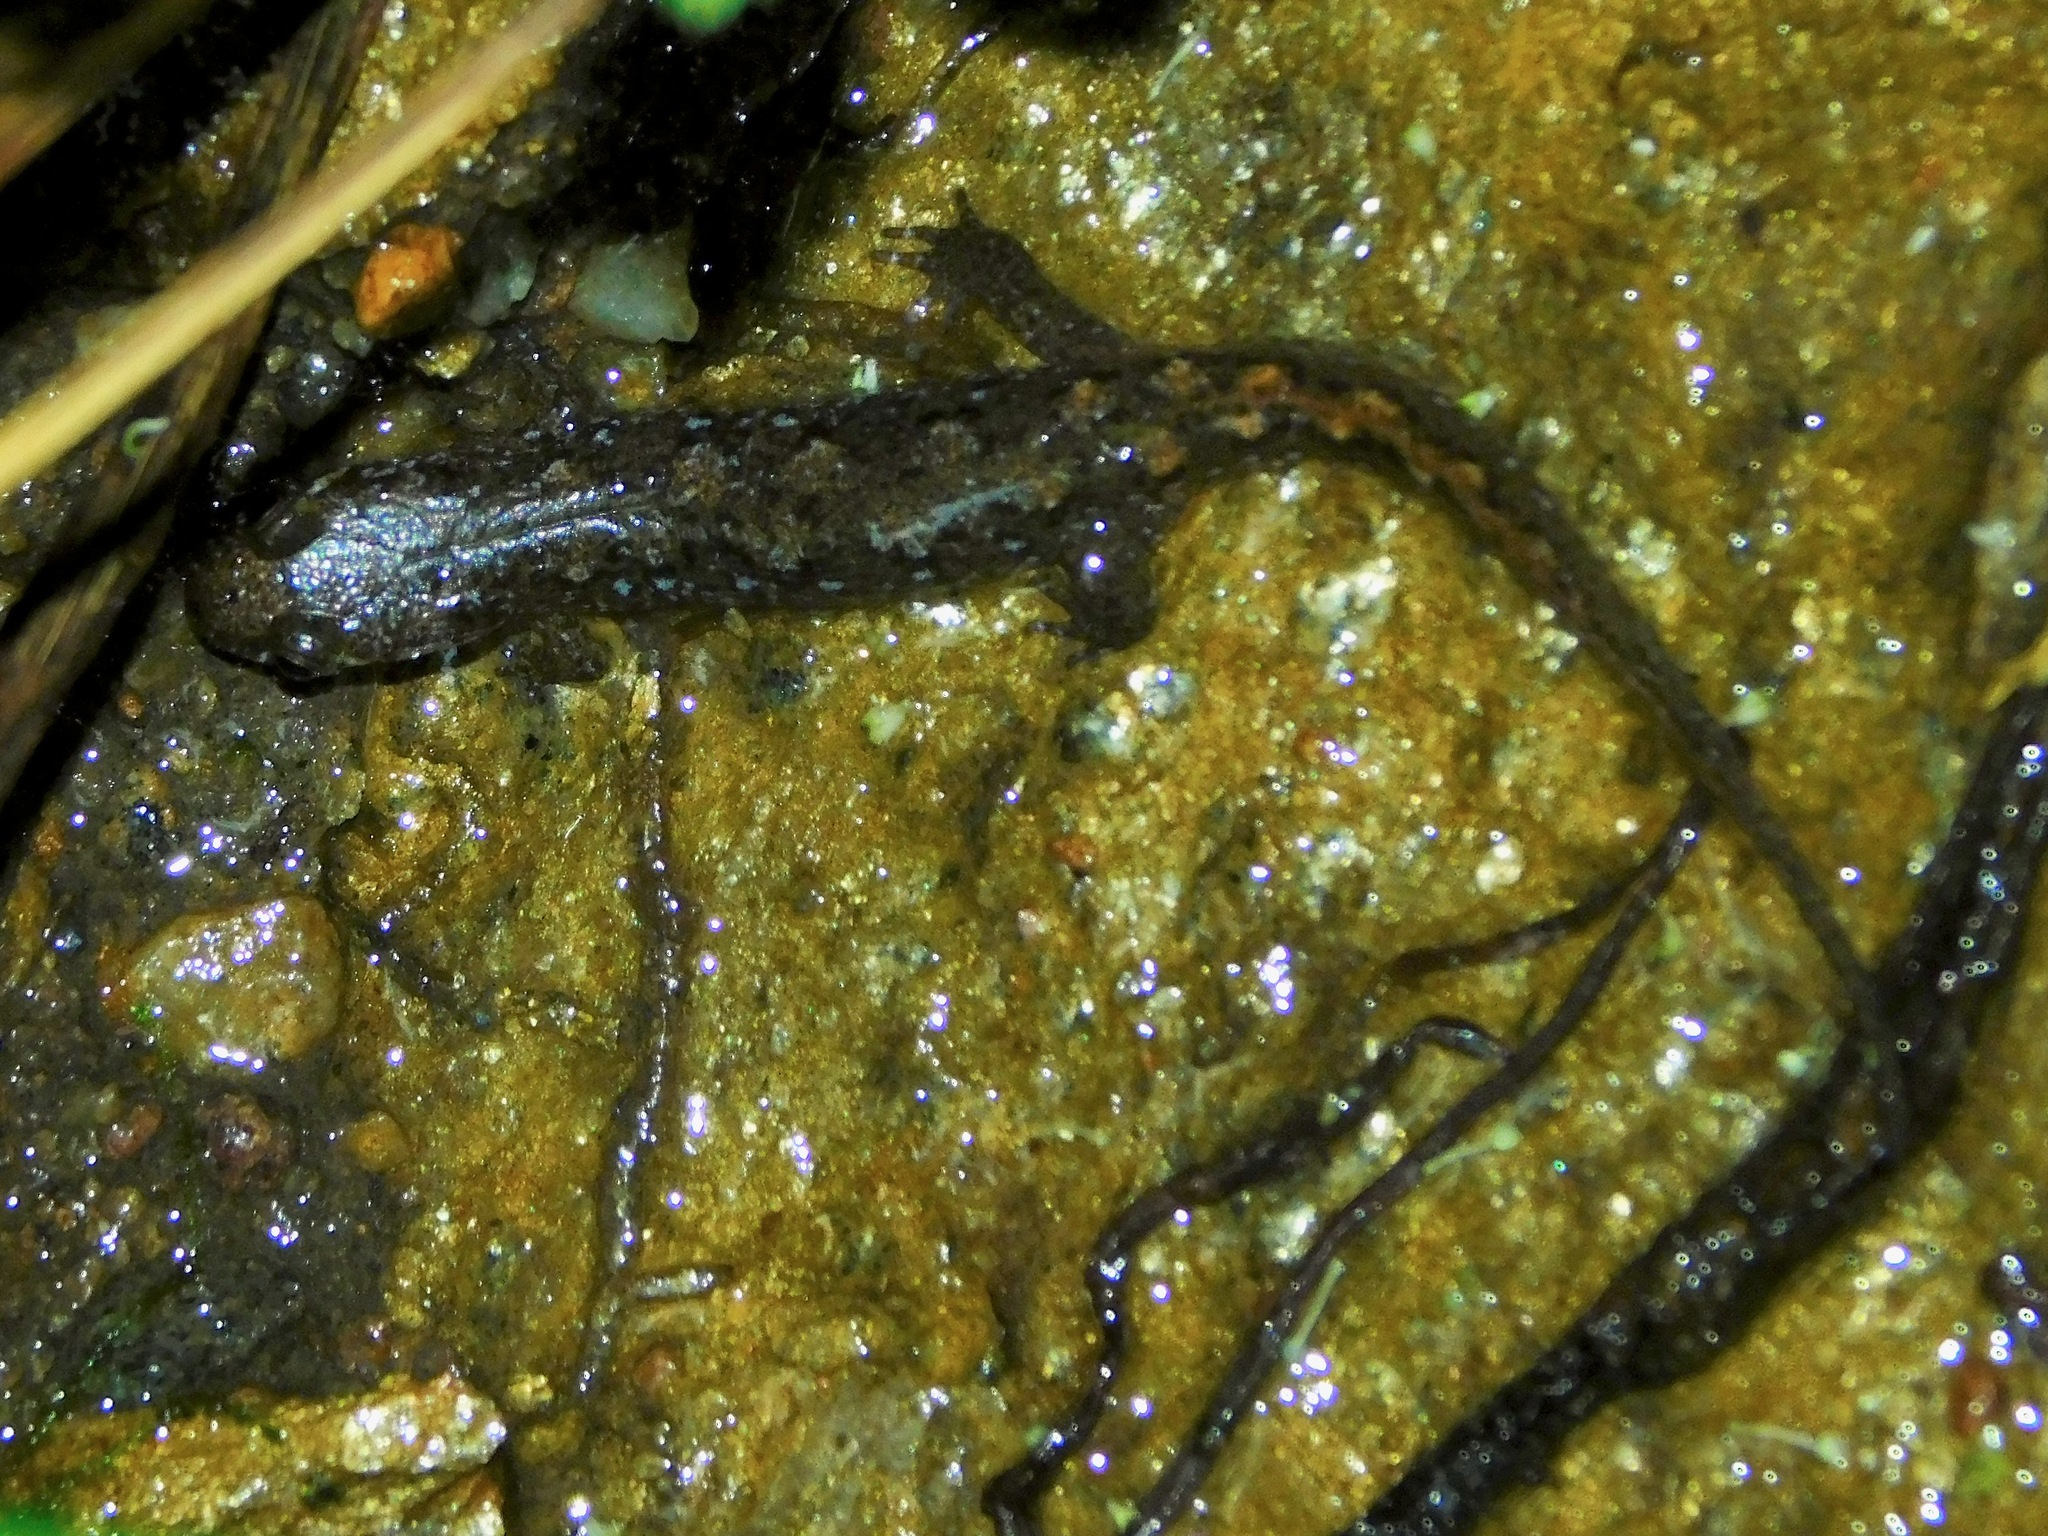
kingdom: Animalia
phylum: Chordata
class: Amphibia
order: Caudata
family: Plethodontidae
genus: Desmognathus
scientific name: Desmognathus monticola
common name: Seal salamander
